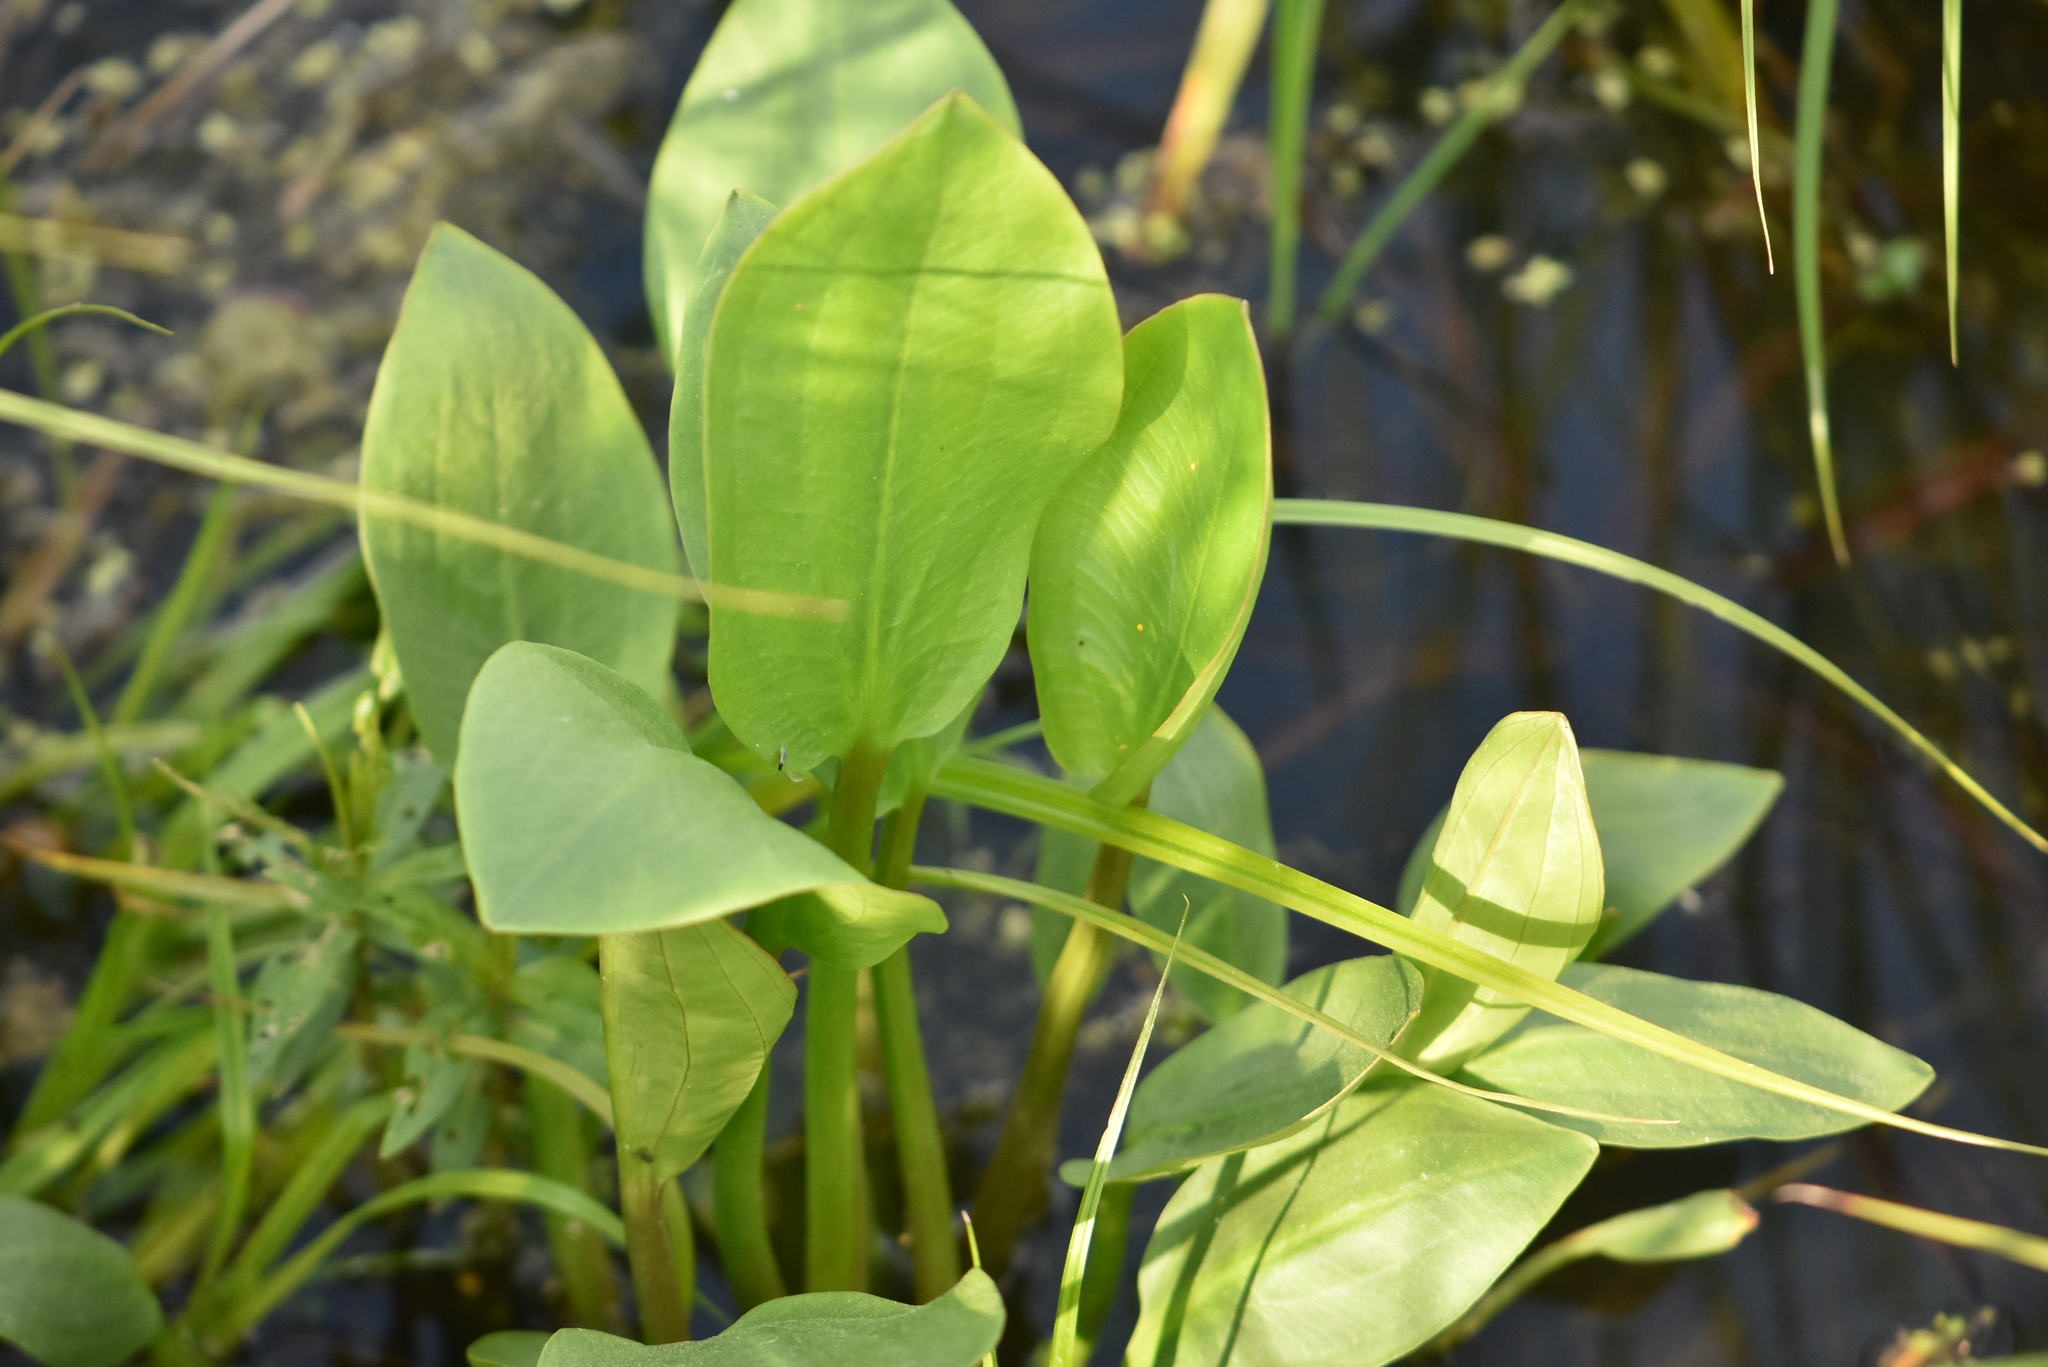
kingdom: Plantae
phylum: Tracheophyta
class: Liliopsida
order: Alismatales
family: Alismataceae
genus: Alisma
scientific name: Alisma plantago-aquatica
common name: Water-plantain
